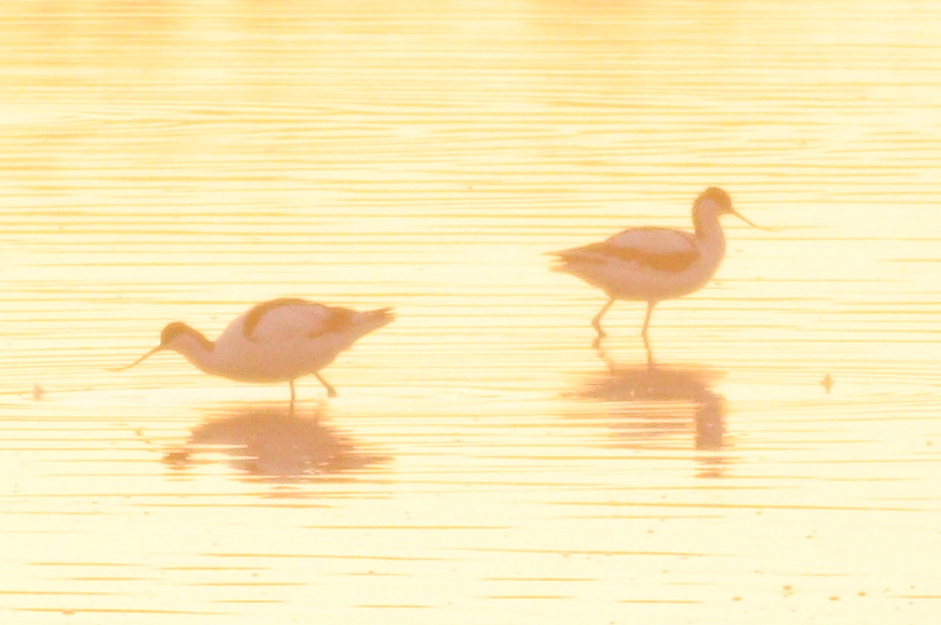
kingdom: Animalia
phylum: Chordata
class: Aves
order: Charadriiformes
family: Recurvirostridae
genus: Recurvirostra
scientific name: Recurvirostra avosetta
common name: Pied avocet
